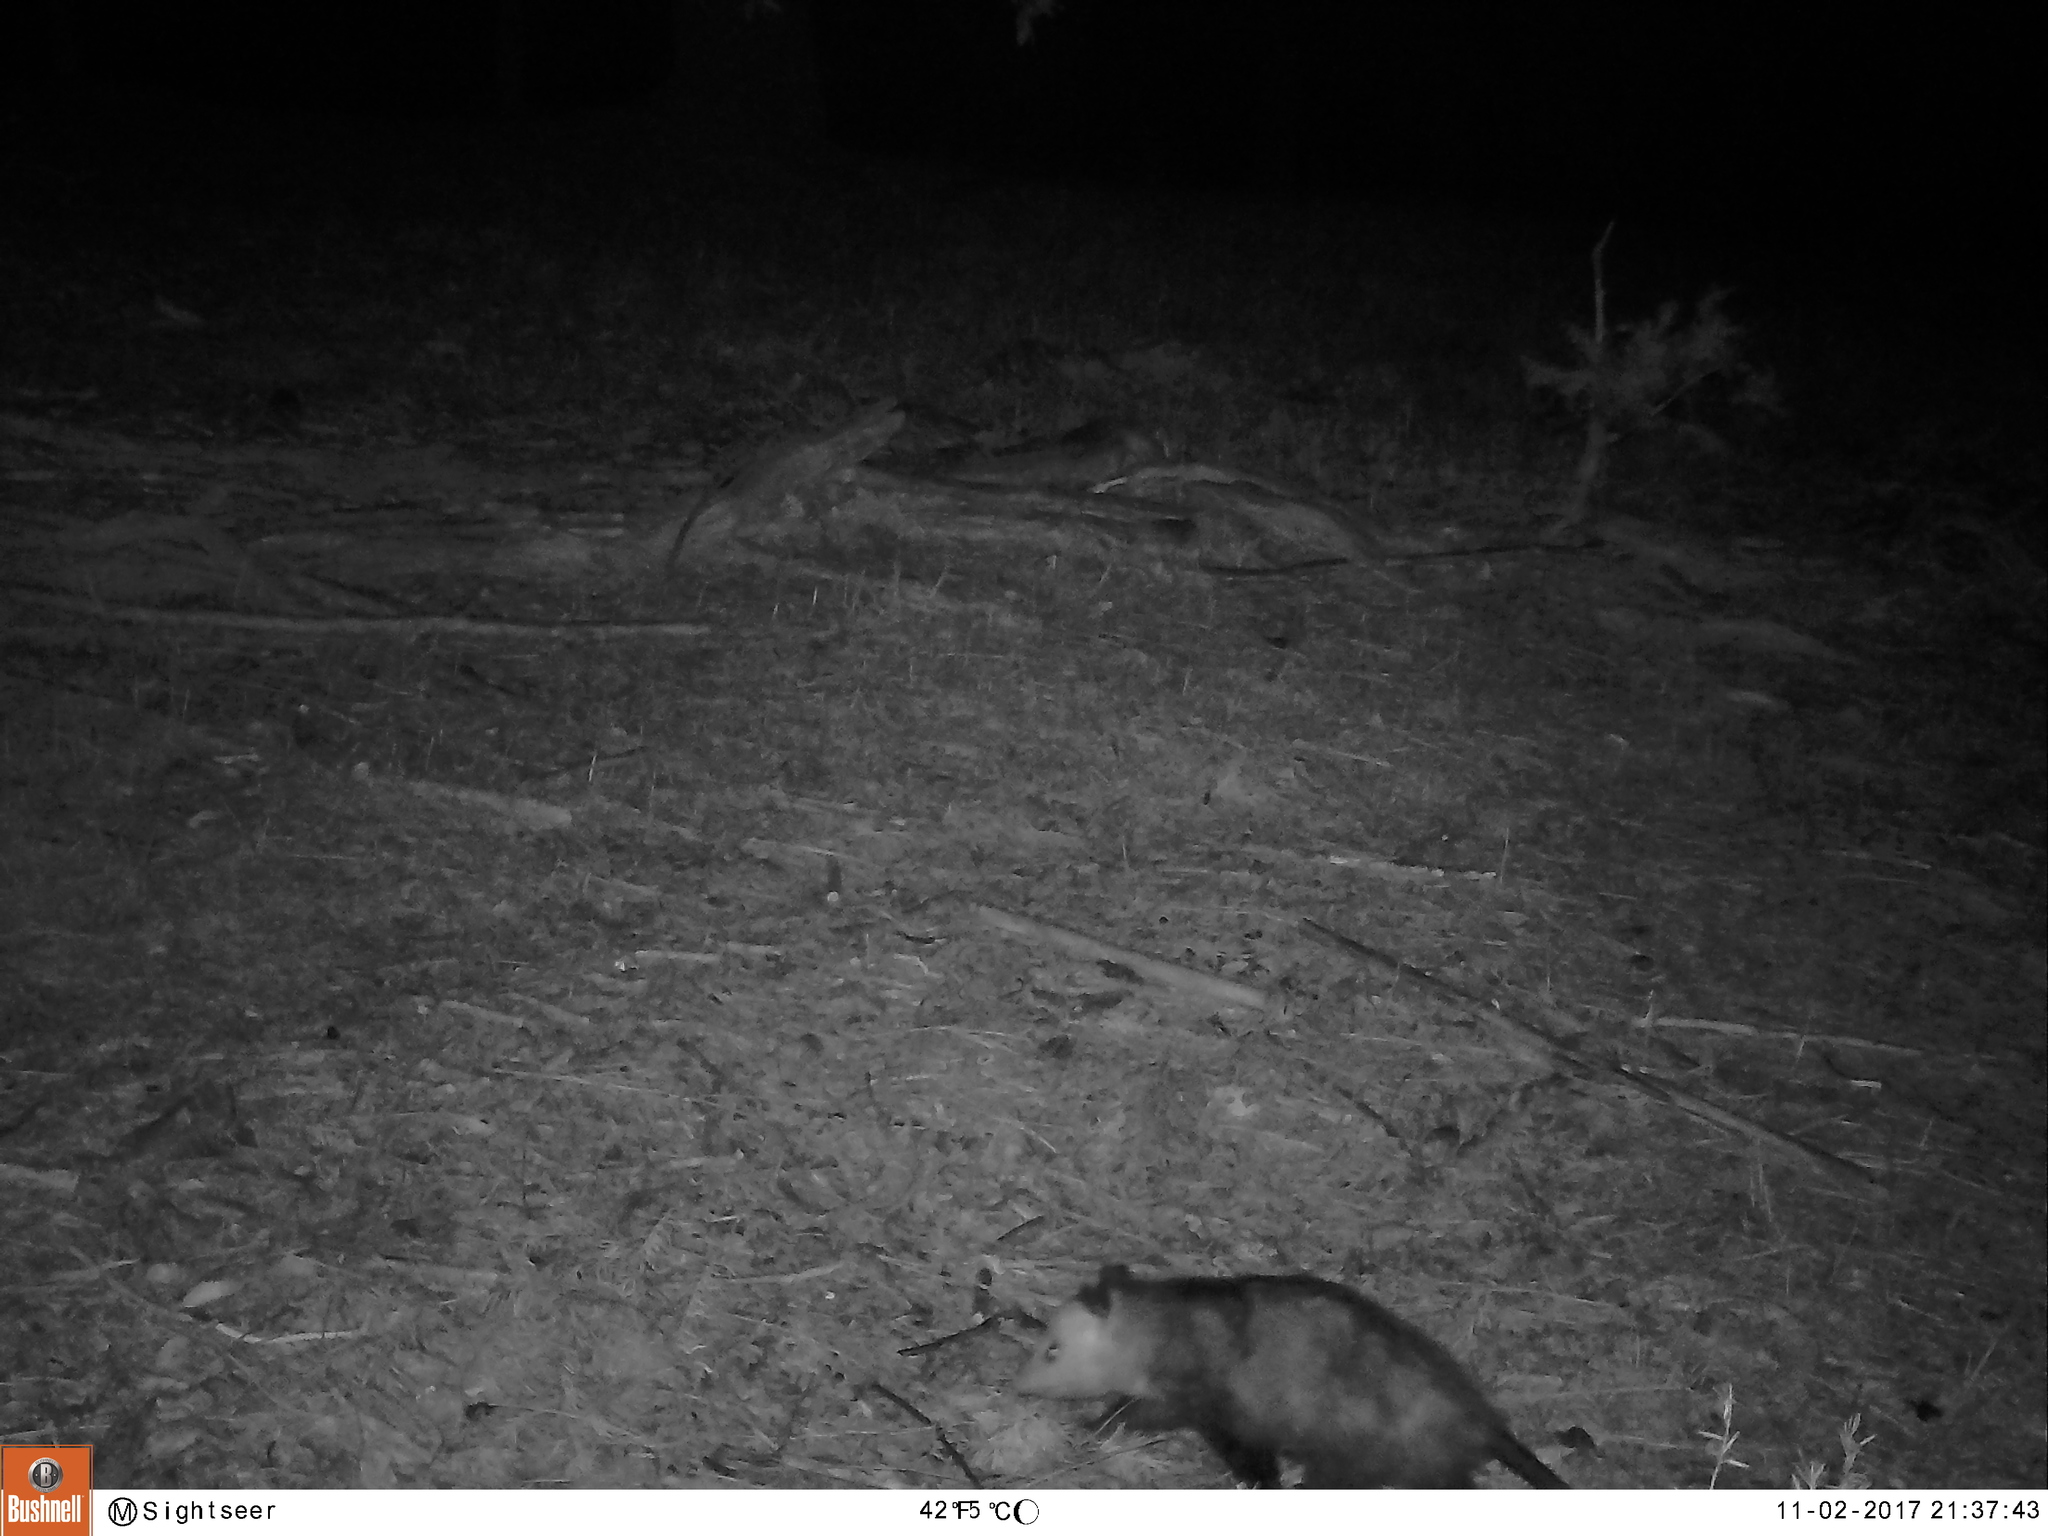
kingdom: Animalia
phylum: Chordata
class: Mammalia
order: Didelphimorphia
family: Didelphidae
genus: Didelphis
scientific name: Didelphis virginiana
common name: Virginia opossum
